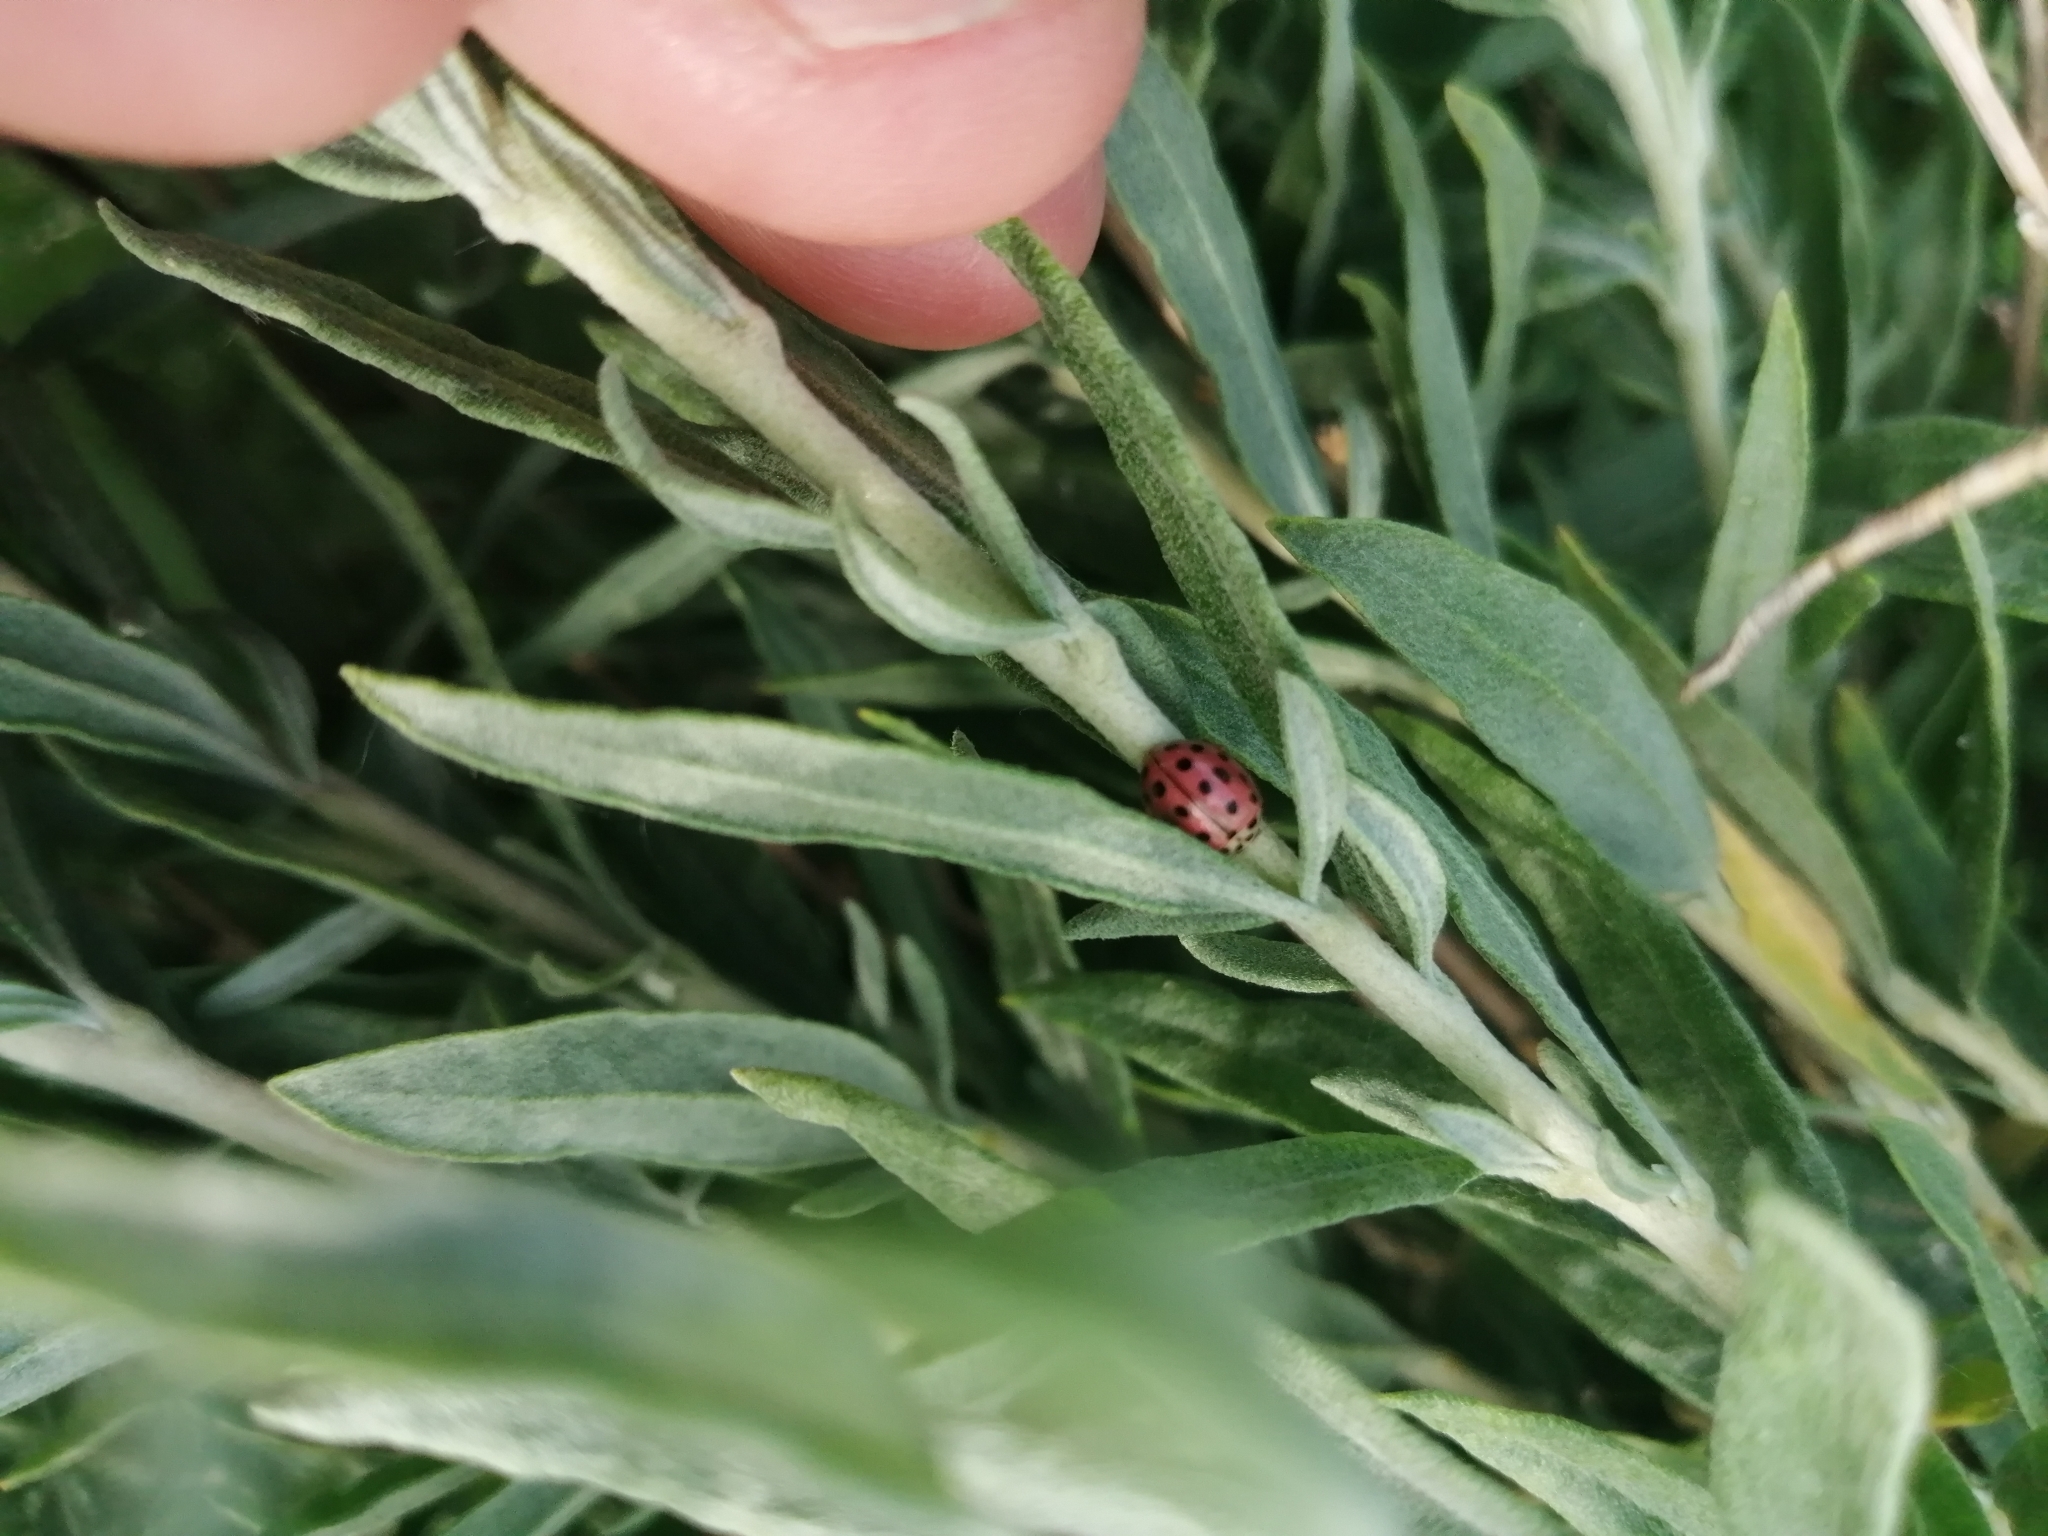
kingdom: Animalia
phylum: Arthropoda
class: Insecta
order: Coleoptera
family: Coccinellidae
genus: Bulaea
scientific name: Bulaea lichatschovi
